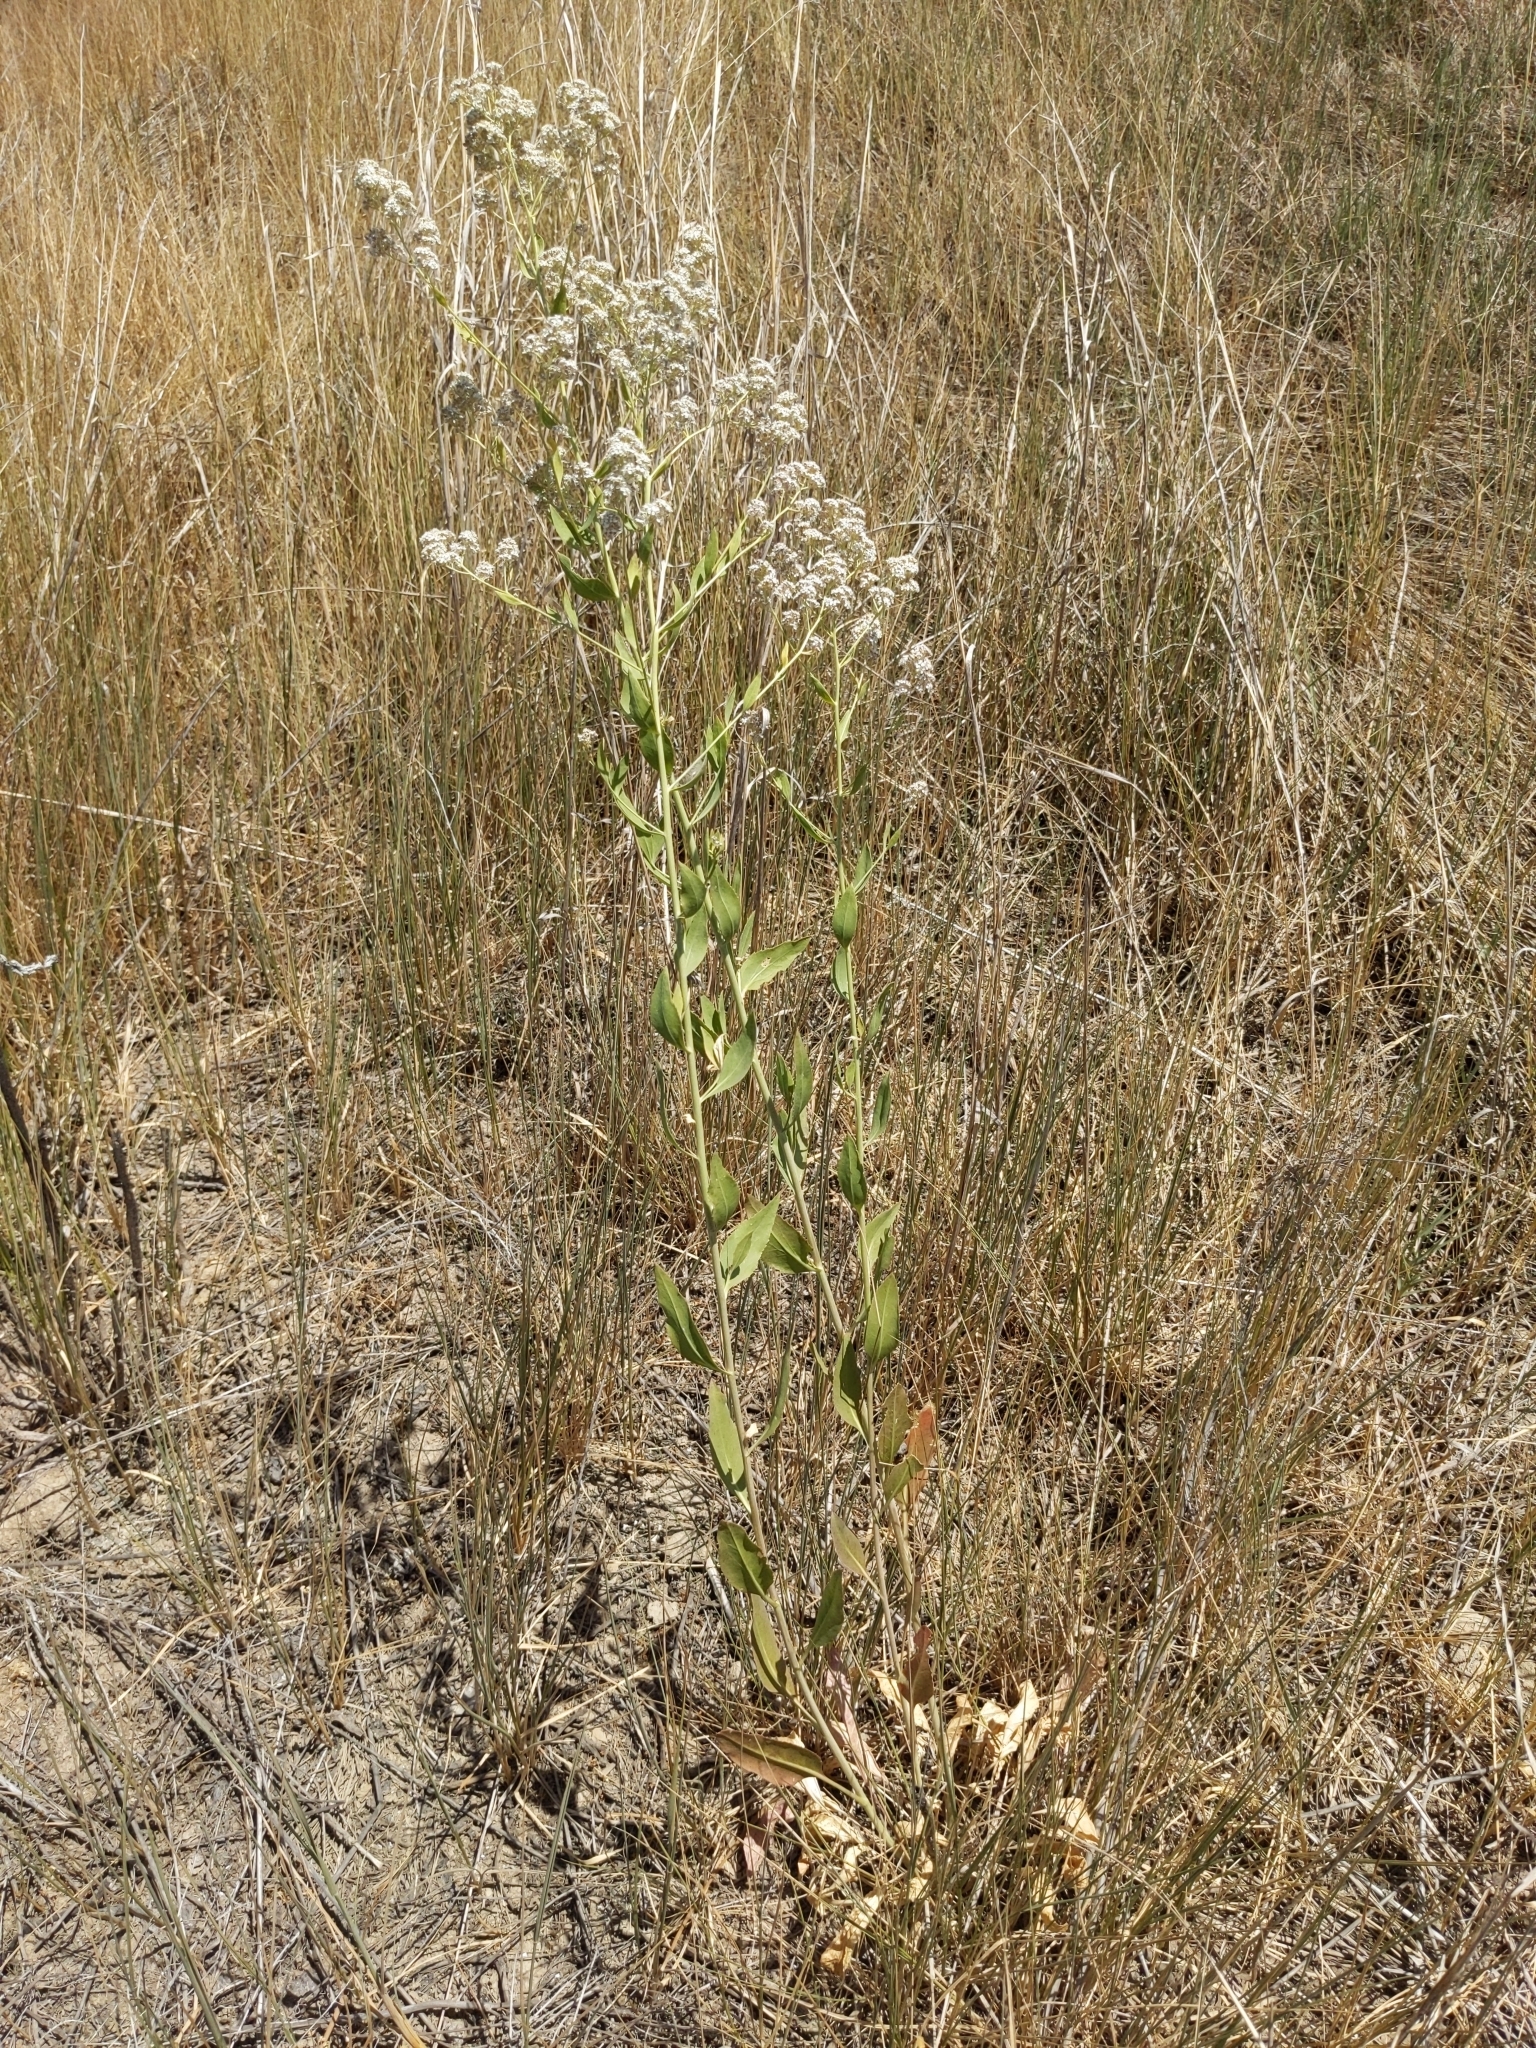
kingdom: Plantae
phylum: Tracheophyta
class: Magnoliopsida
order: Brassicales
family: Brassicaceae
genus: Lepidium
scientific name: Lepidium latifolium
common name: Dittander
